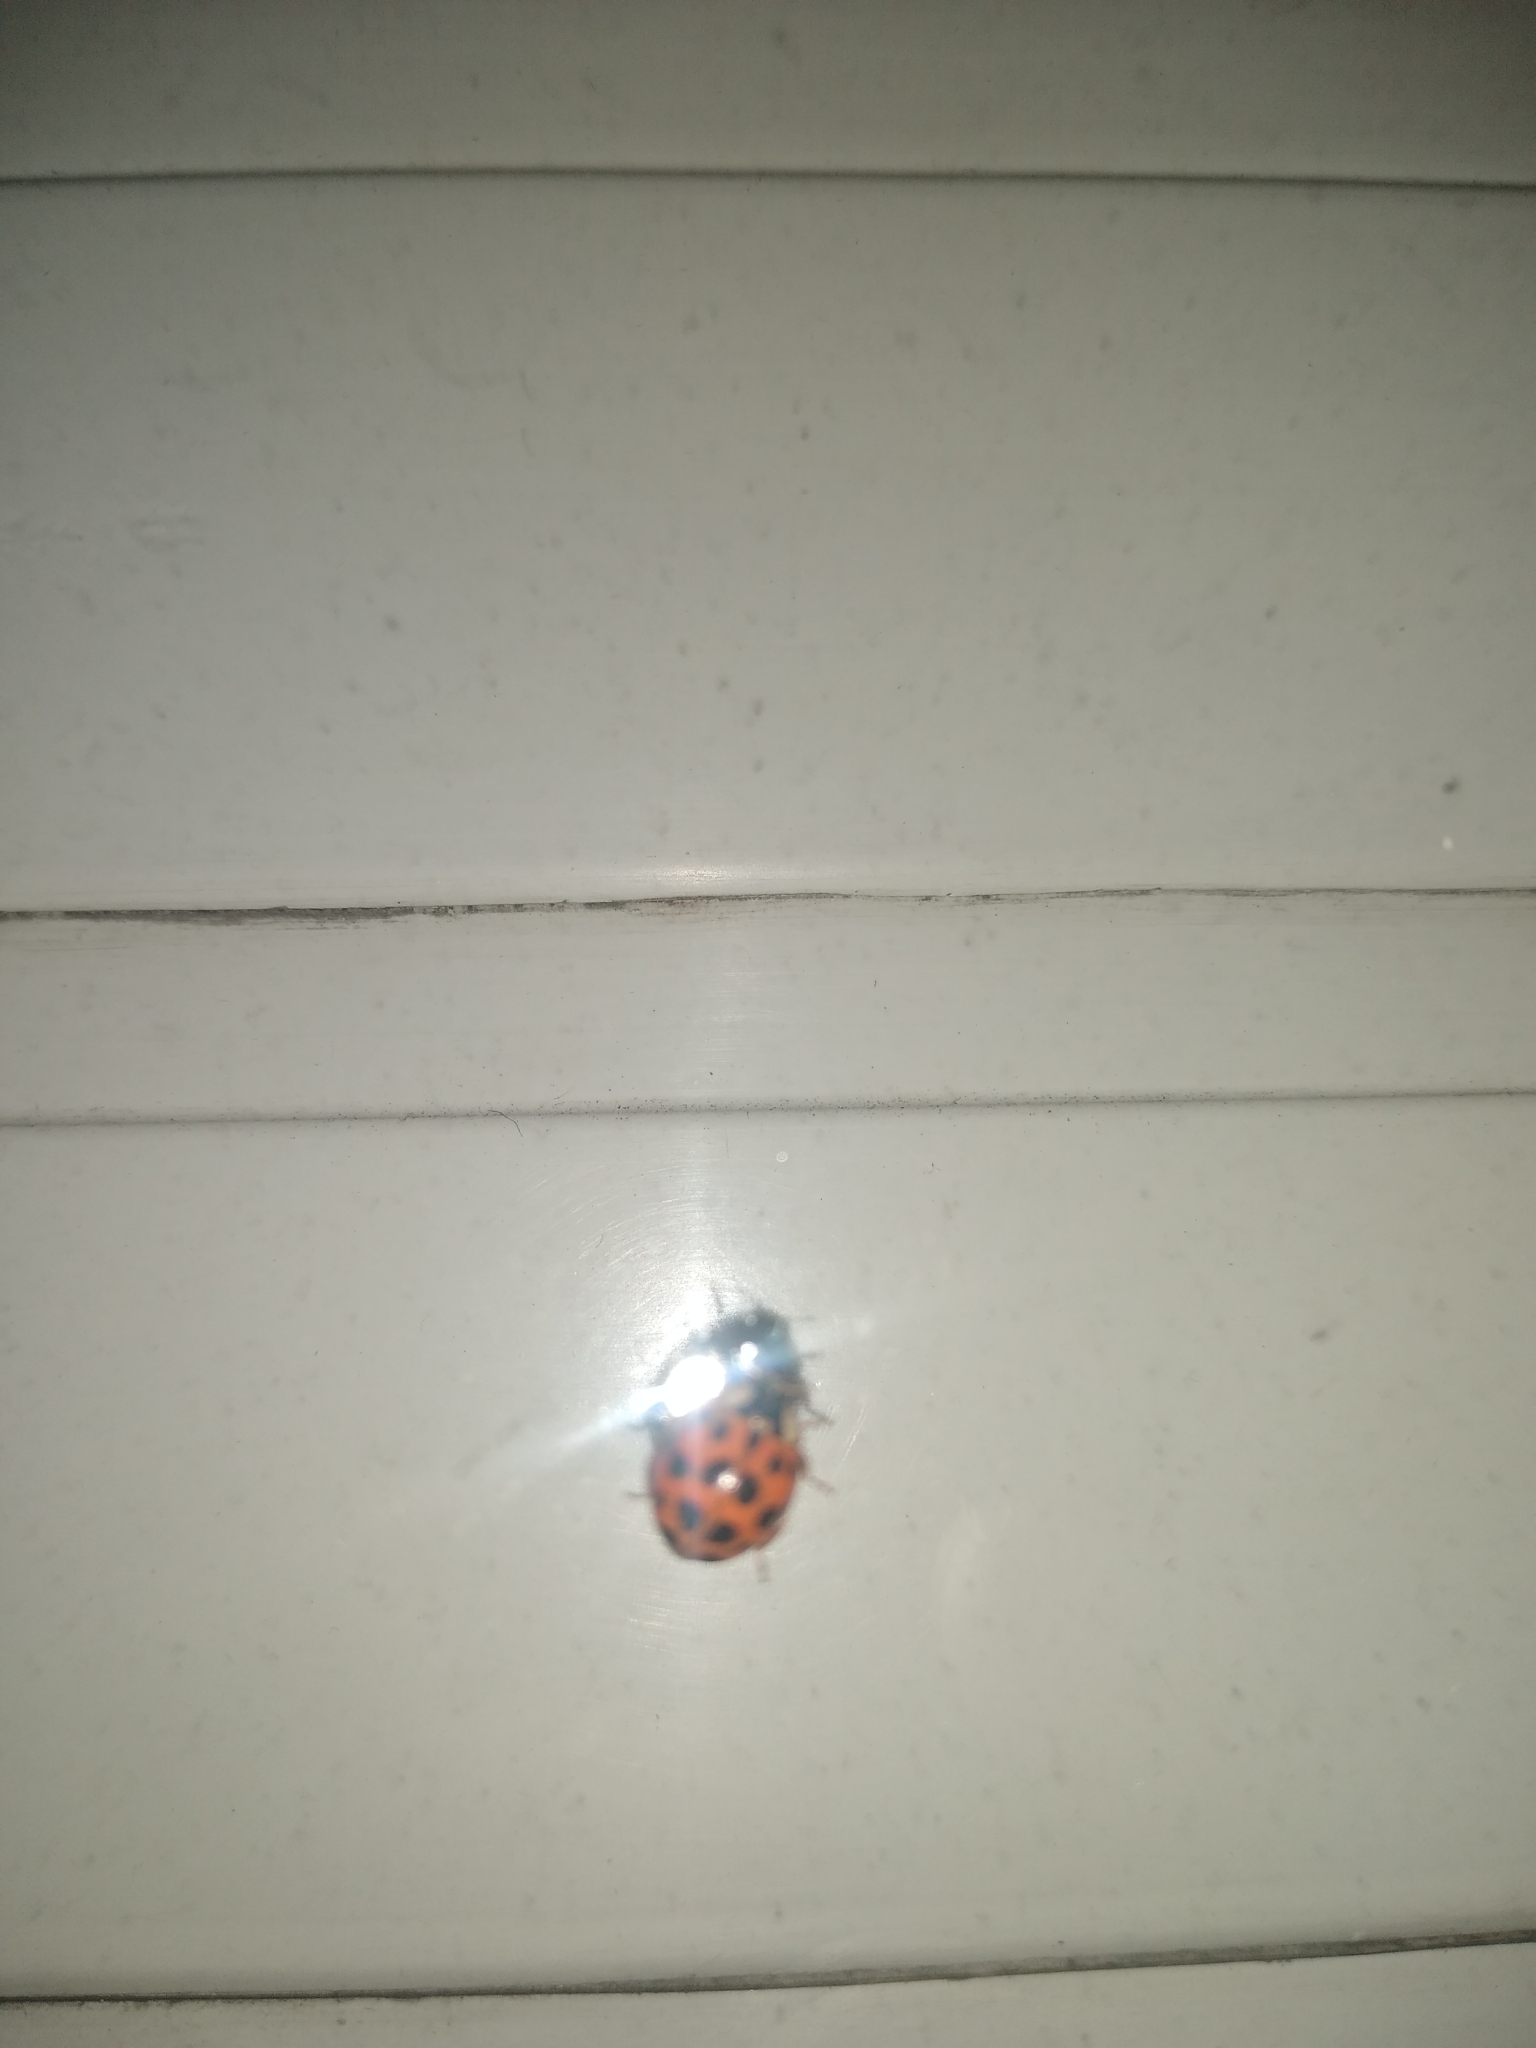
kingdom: Animalia
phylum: Arthropoda
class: Insecta
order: Coleoptera
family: Coccinellidae
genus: Harmonia
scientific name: Harmonia axyridis
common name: Harlequin ladybird
